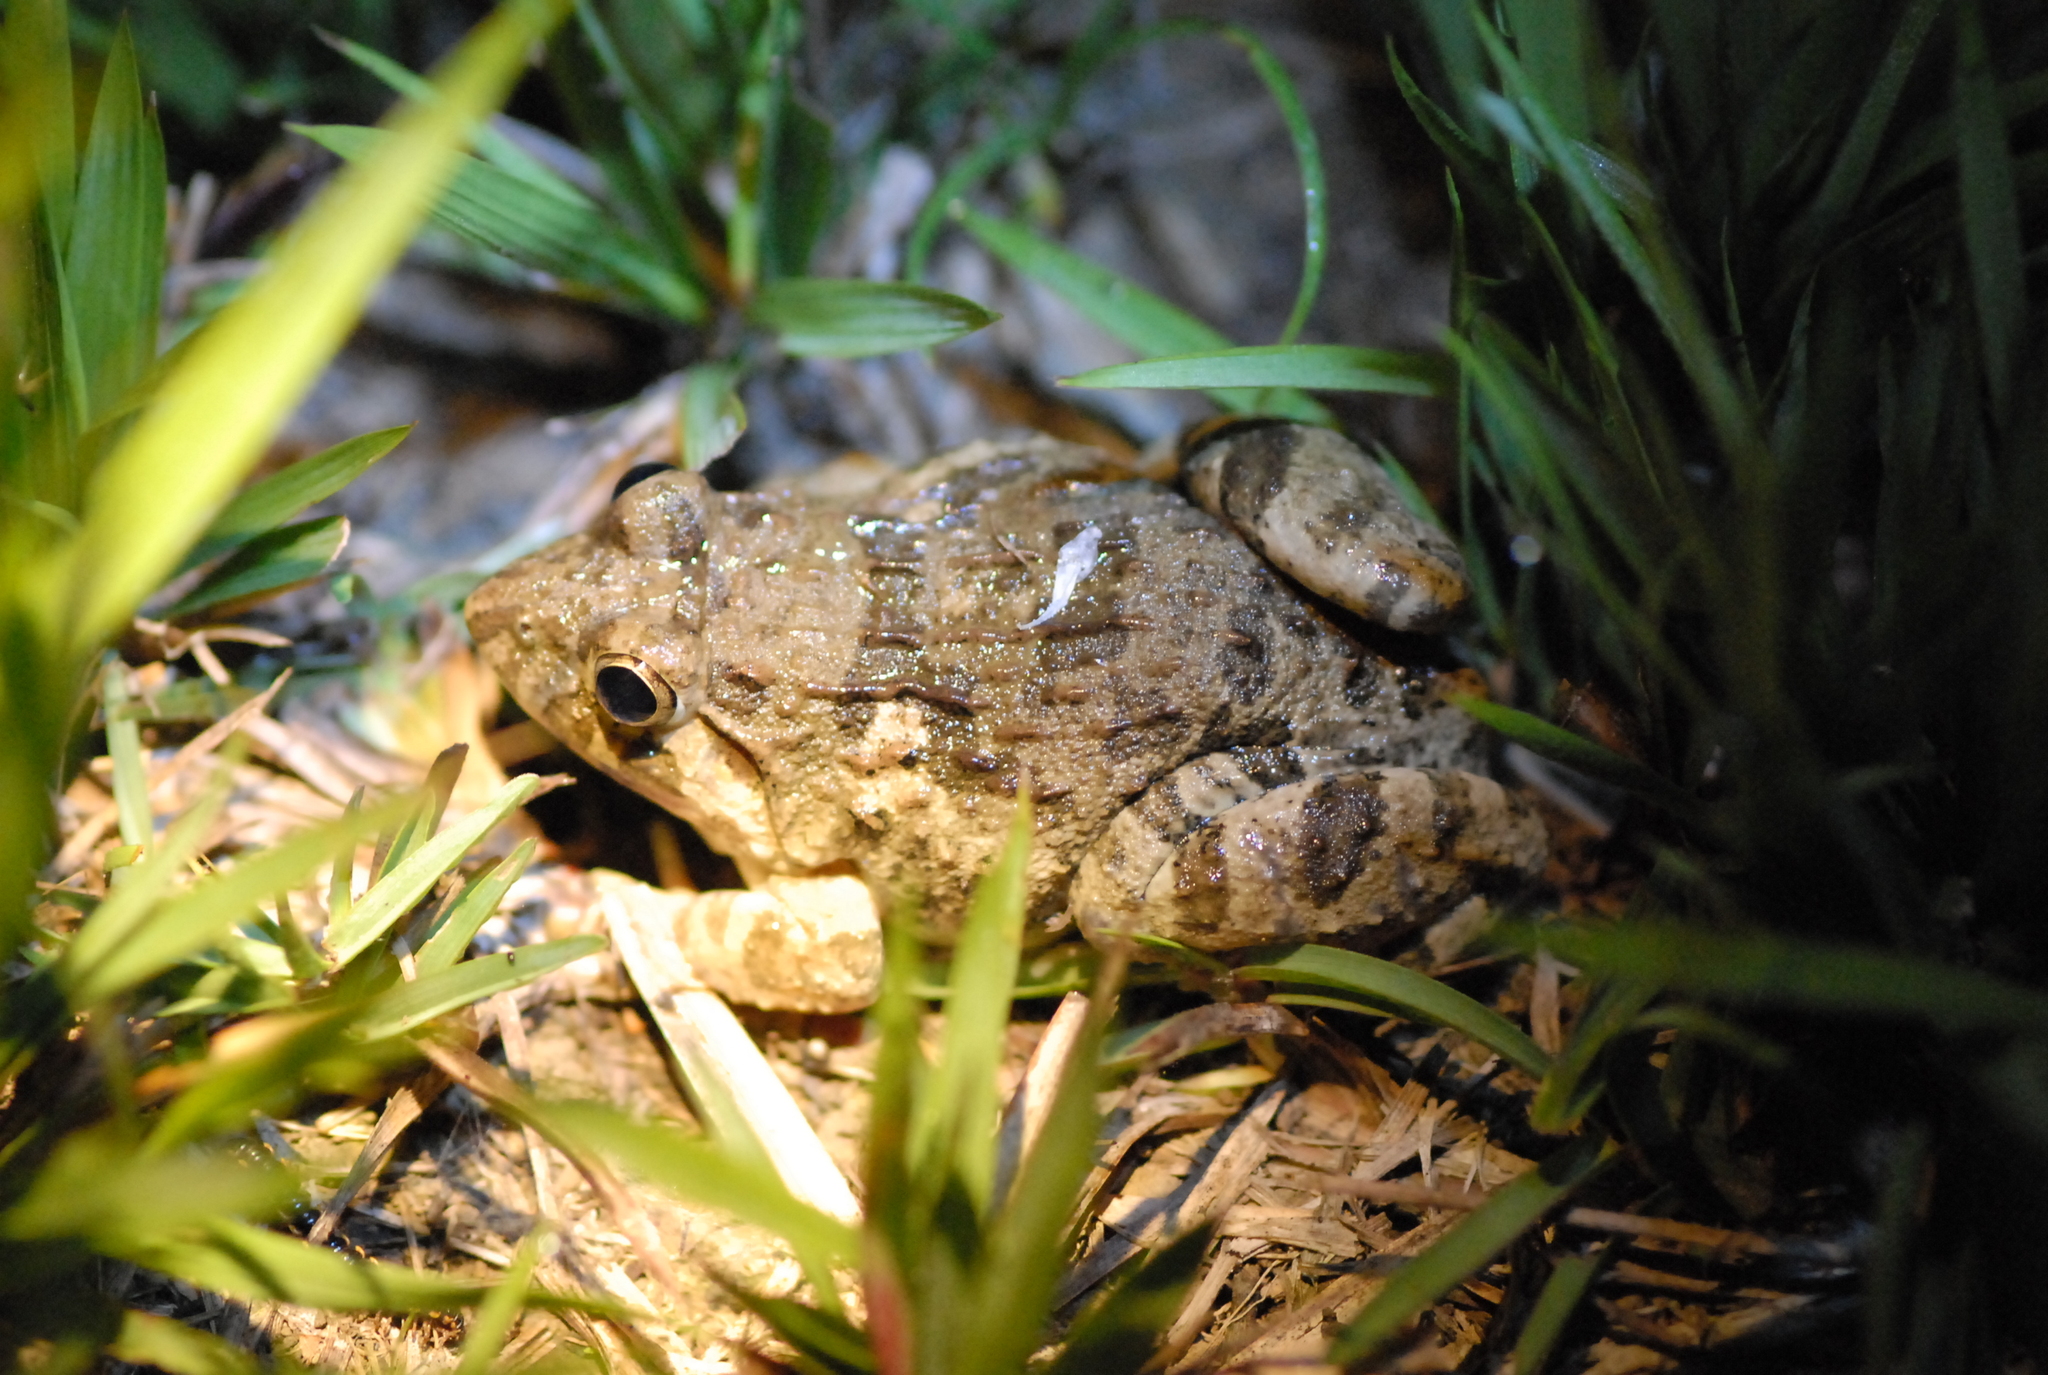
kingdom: Animalia
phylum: Chordata
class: Amphibia
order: Anura
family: Dicroglossidae
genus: Fejervarya
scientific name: Fejervarya limnocharis
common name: Asian grass frog/common pond frog/field frog/grass frog/indian rice frog
